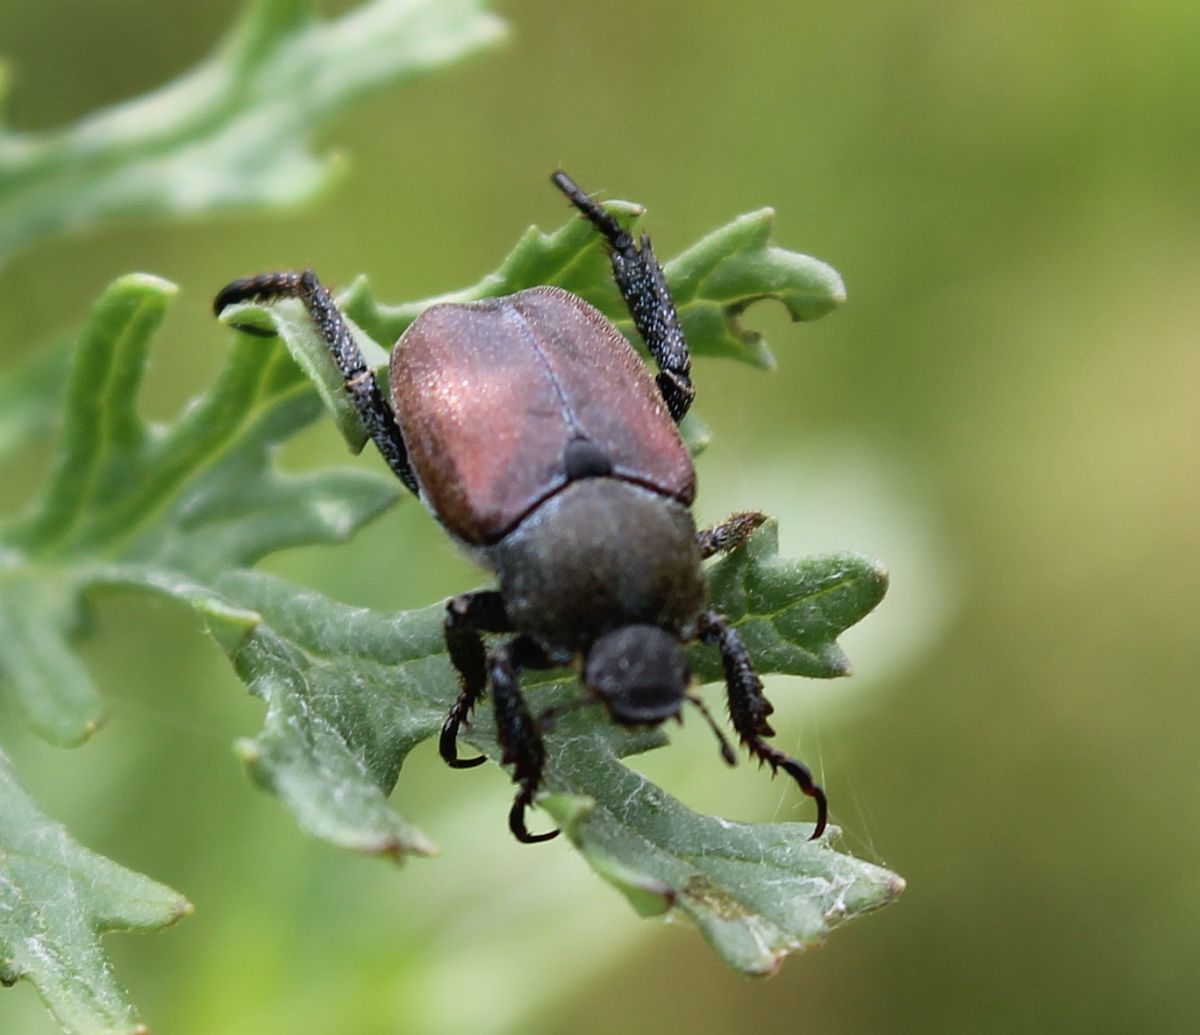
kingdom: Animalia
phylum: Arthropoda
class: Insecta
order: Coleoptera
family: Scarabaeidae
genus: Hoplia
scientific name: Hoplia philanthus
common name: Welsh chafer
